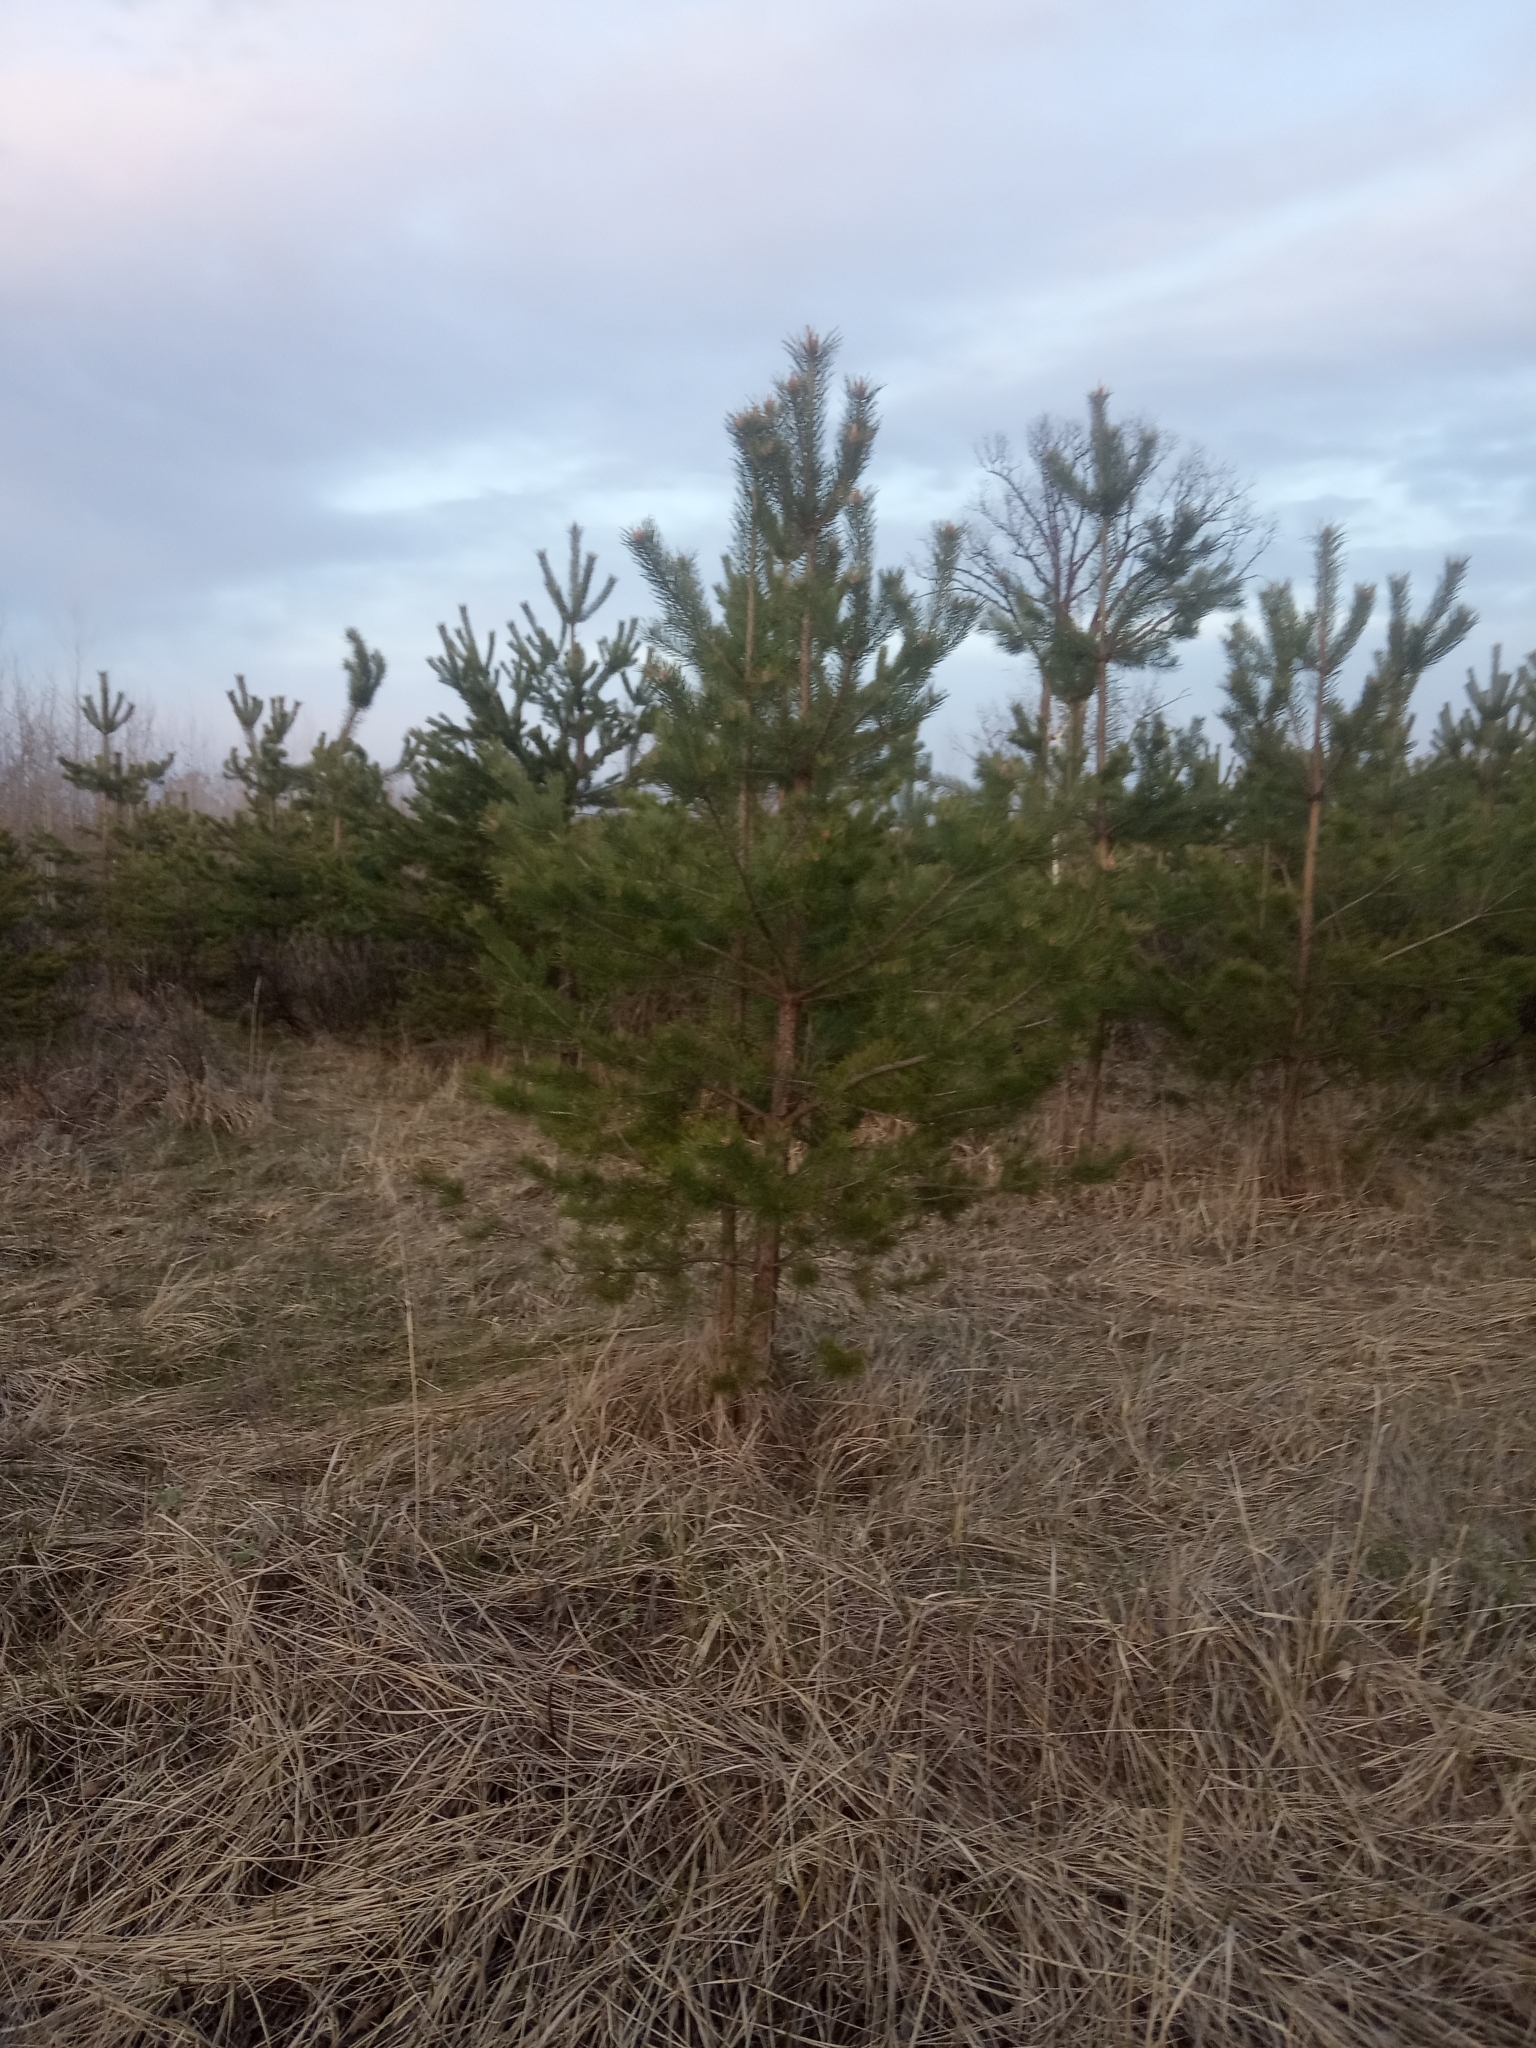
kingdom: Plantae
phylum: Tracheophyta
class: Pinopsida
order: Pinales
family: Pinaceae
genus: Pinus
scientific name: Pinus sylvestris
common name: Scots pine
